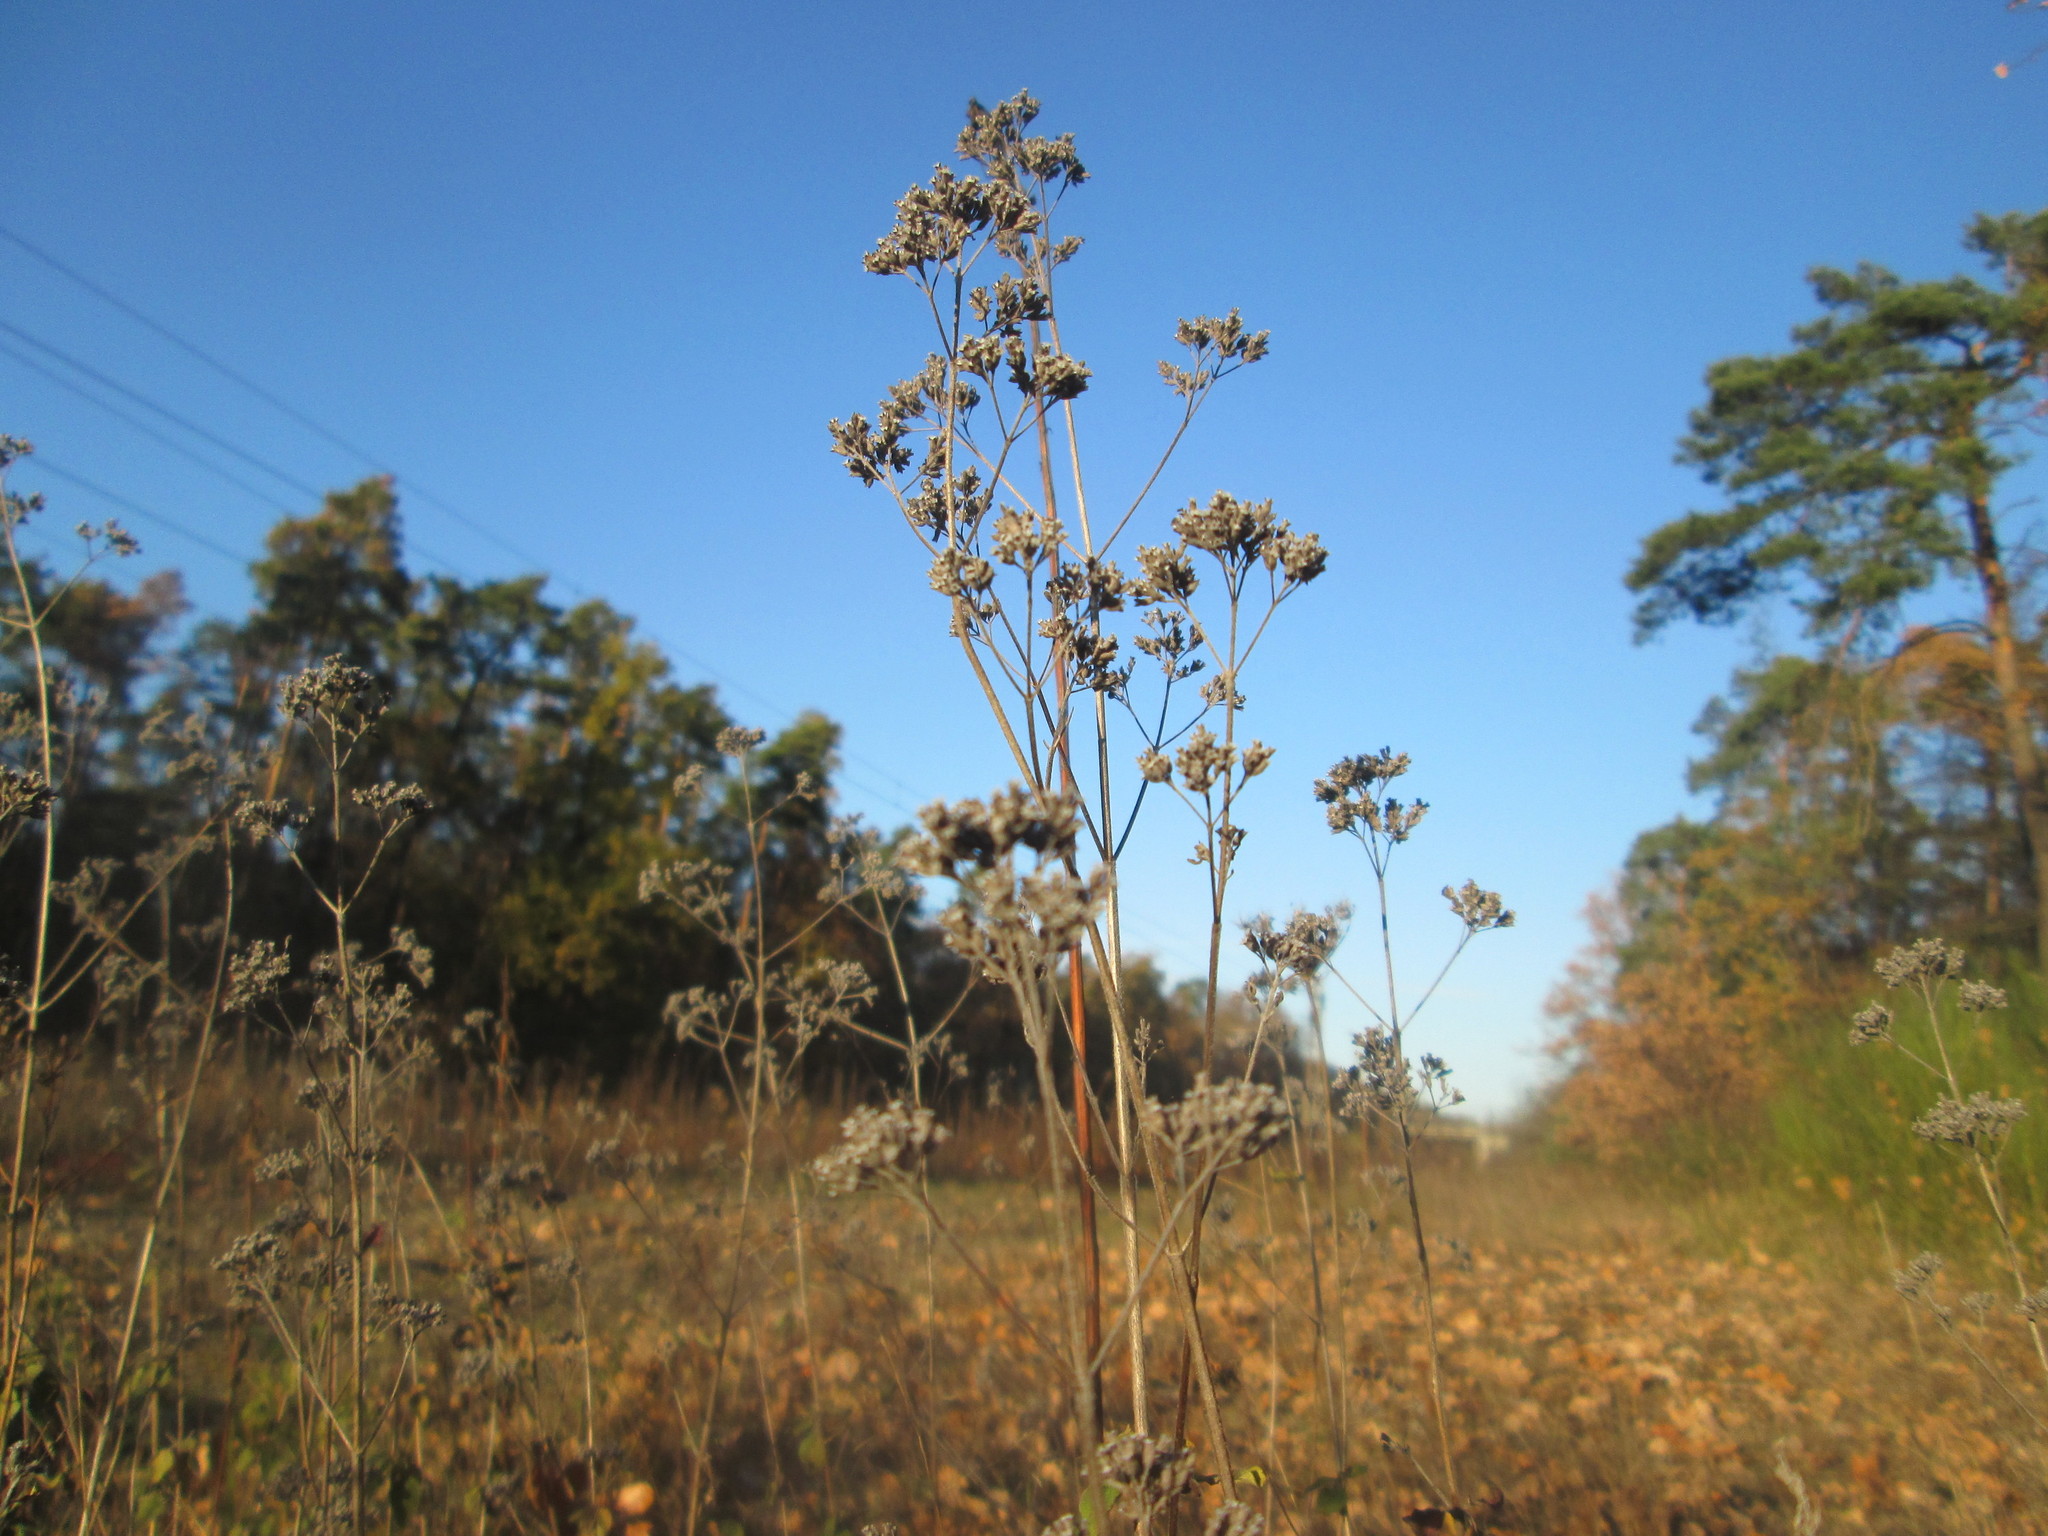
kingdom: Plantae
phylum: Tracheophyta
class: Magnoliopsida
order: Lamiales
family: Lamiaceae
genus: Origanum
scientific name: Origanum vulgare
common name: Wild marjoram
